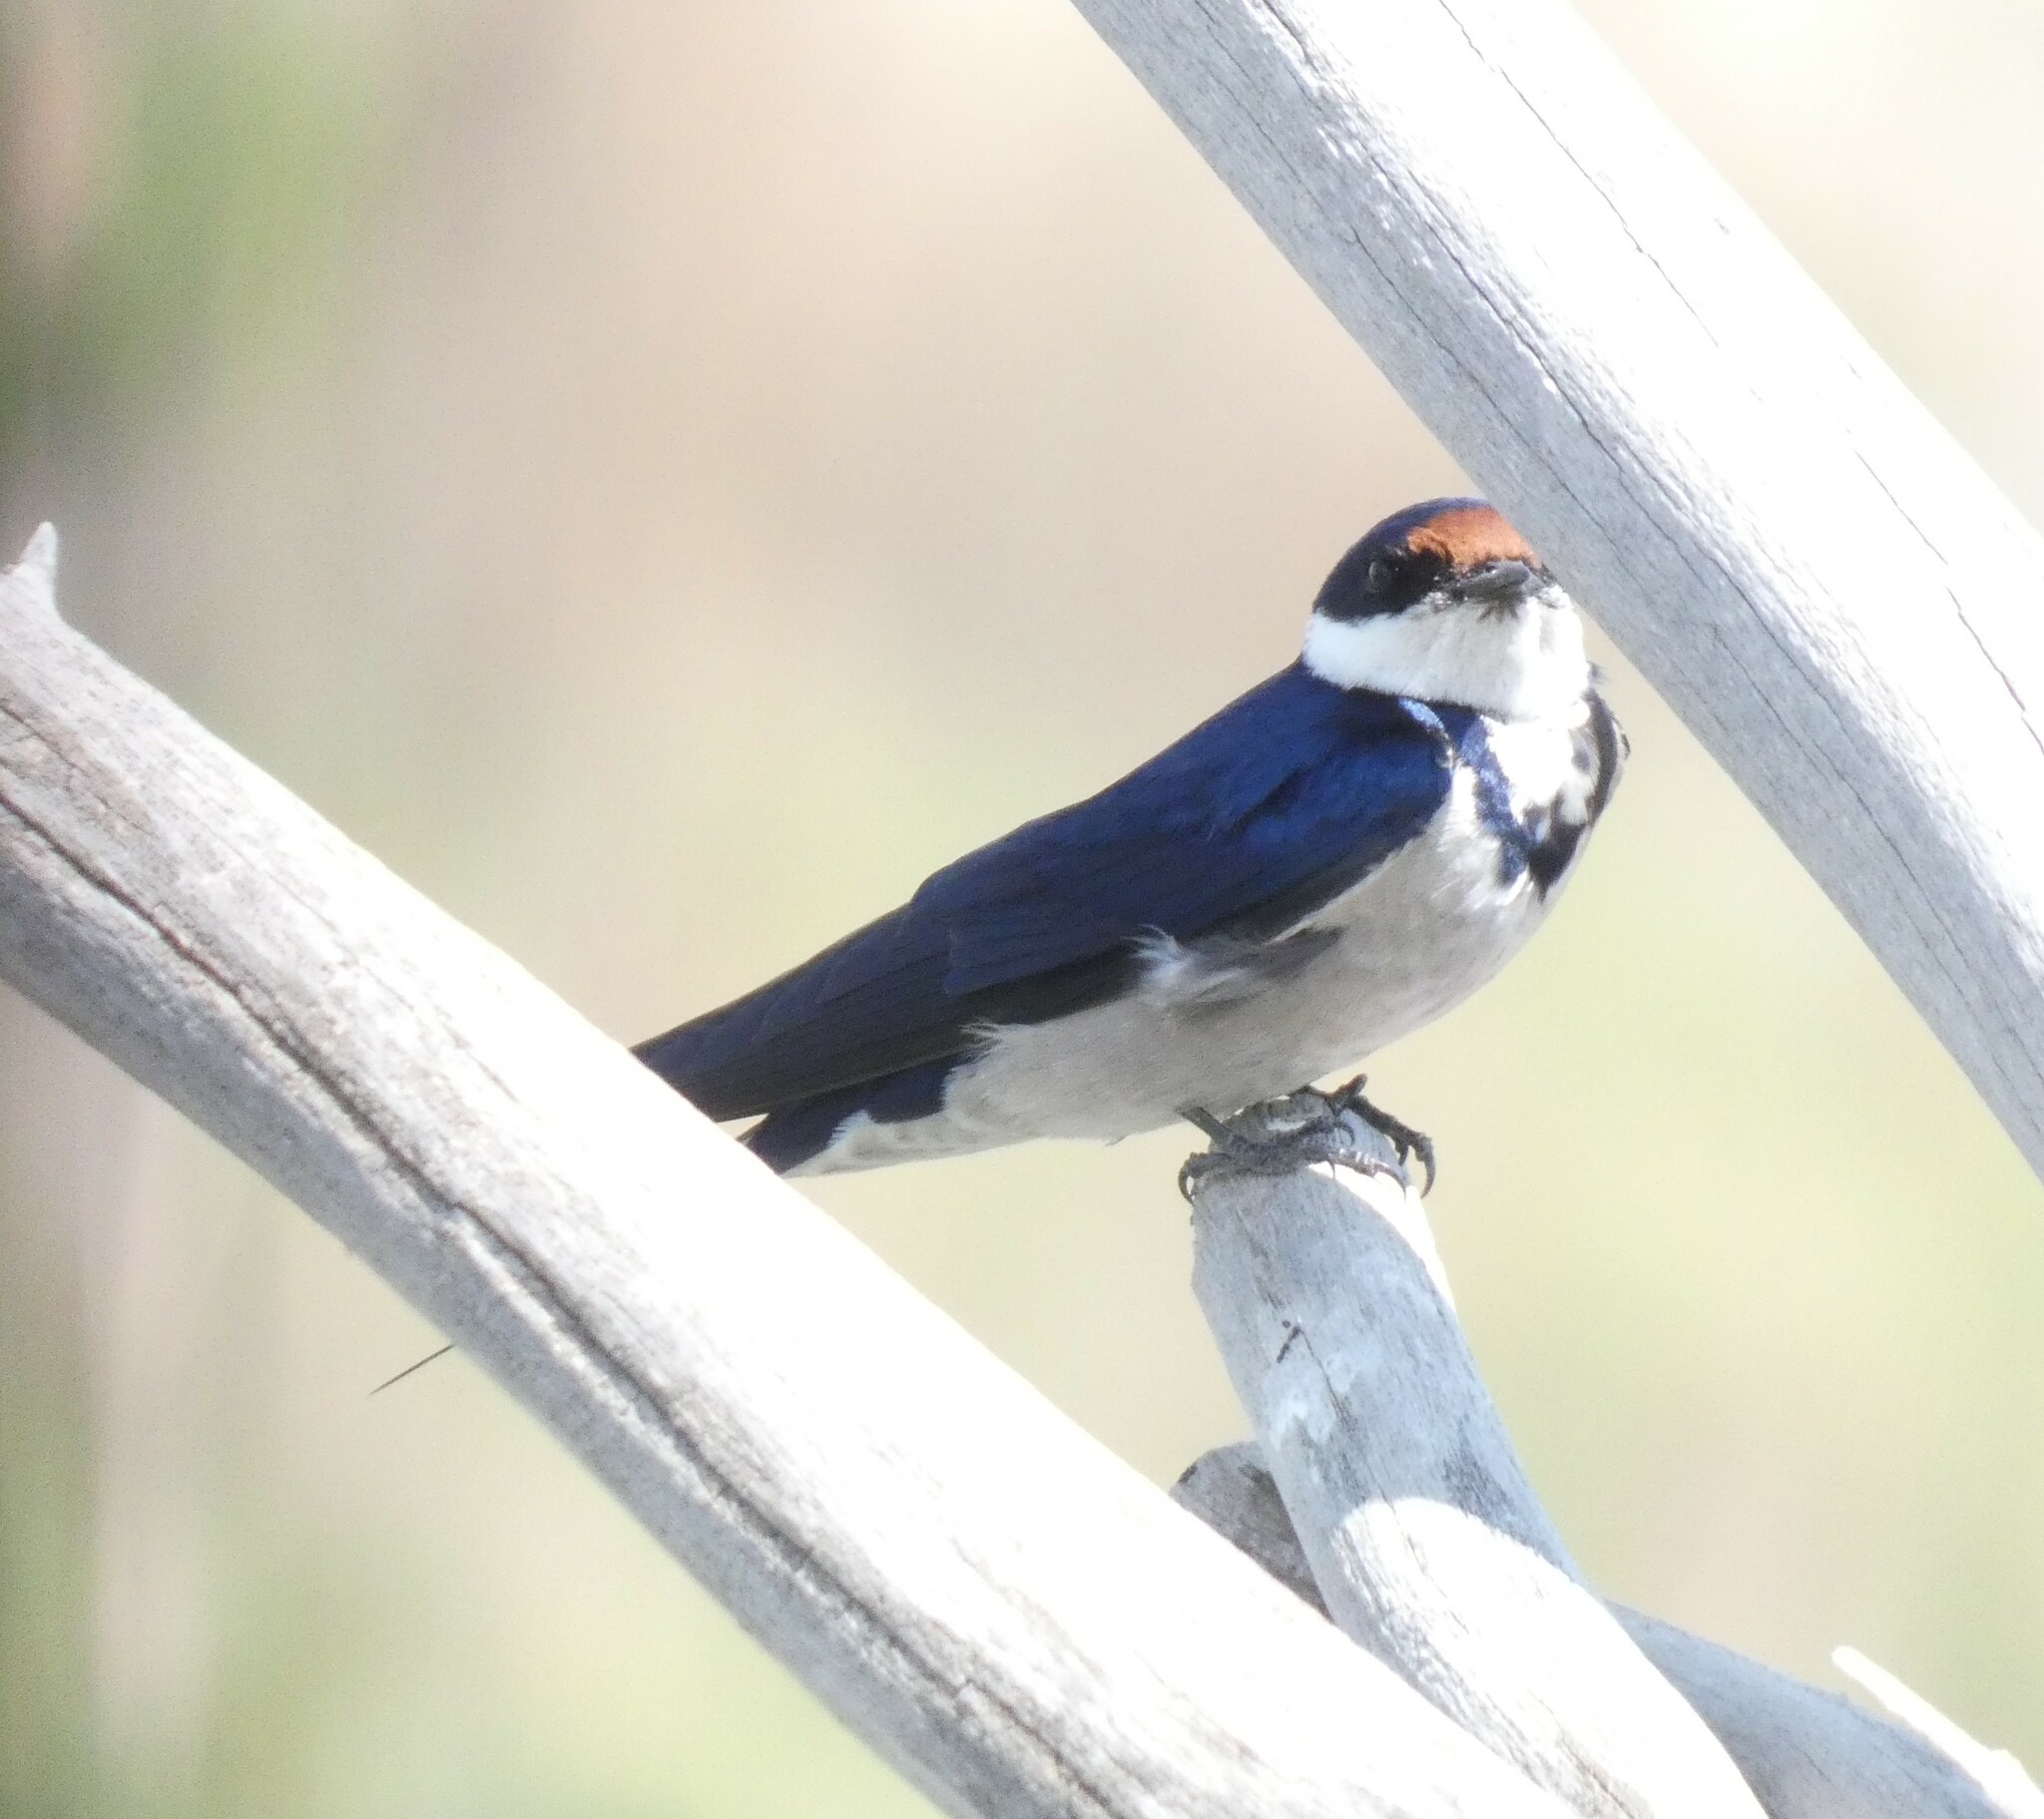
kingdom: Animalia
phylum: Chordata
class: Aves
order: Passeriformes
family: Hirundinidae
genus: Hirundo
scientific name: Hirundo albigularis
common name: White-throated swallow
